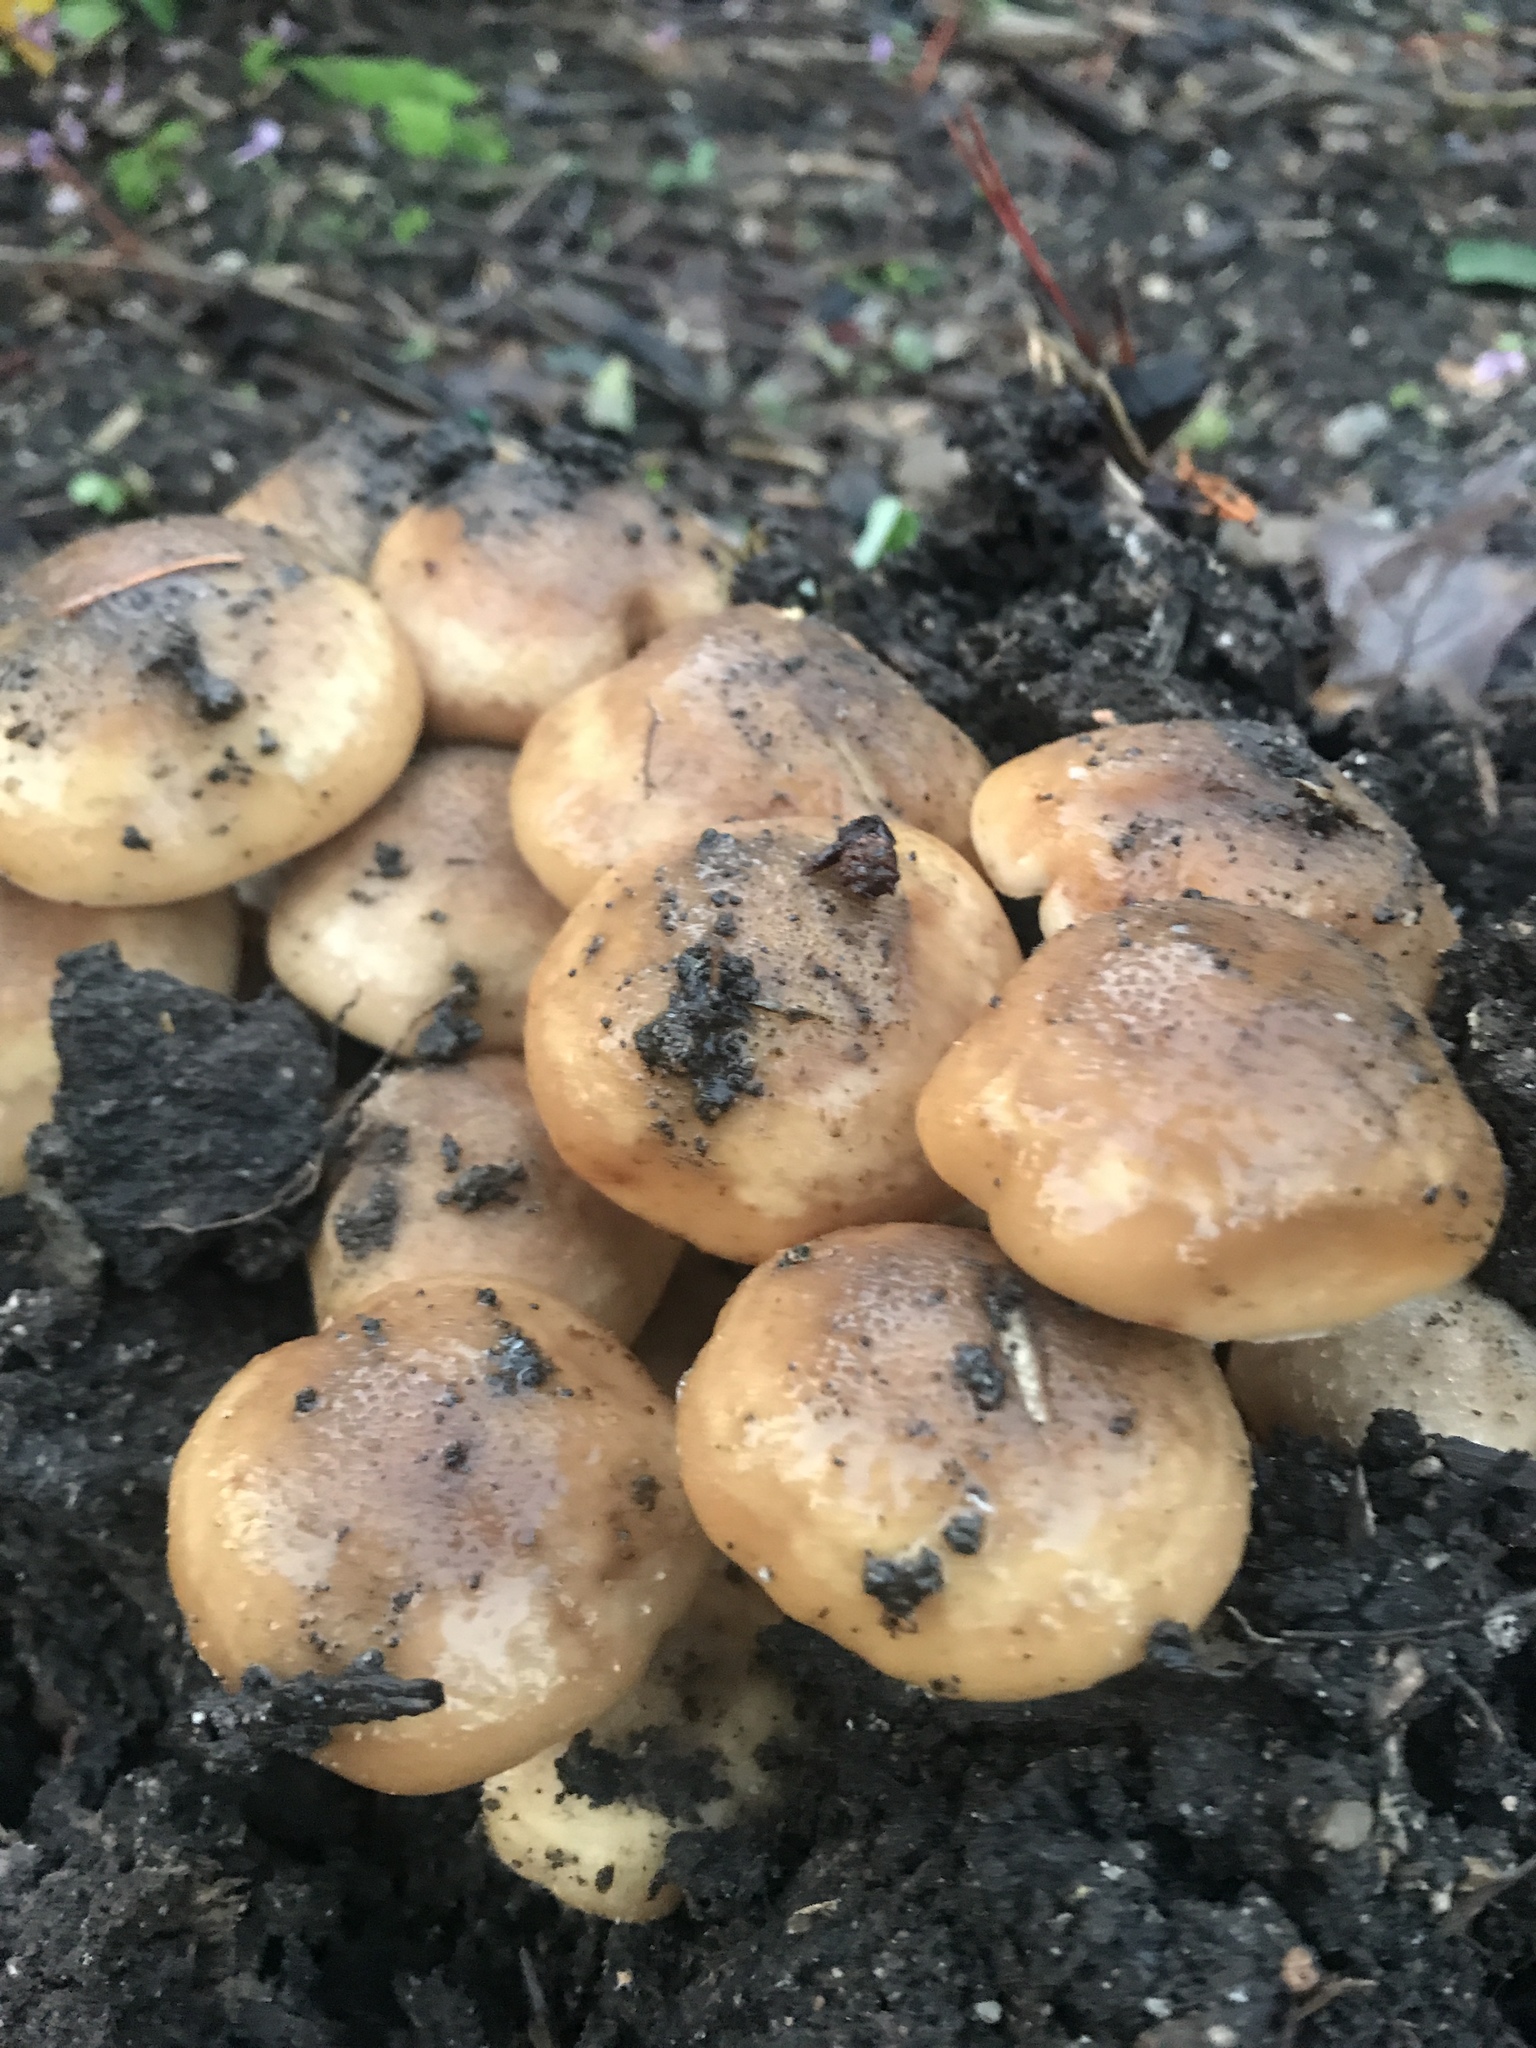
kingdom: Fungi
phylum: Basidiomycota
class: Agaricomycetes
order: Agaricales
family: Physalacriaceae
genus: Armillaria
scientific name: Armillaria mellea
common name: Honey fungus
